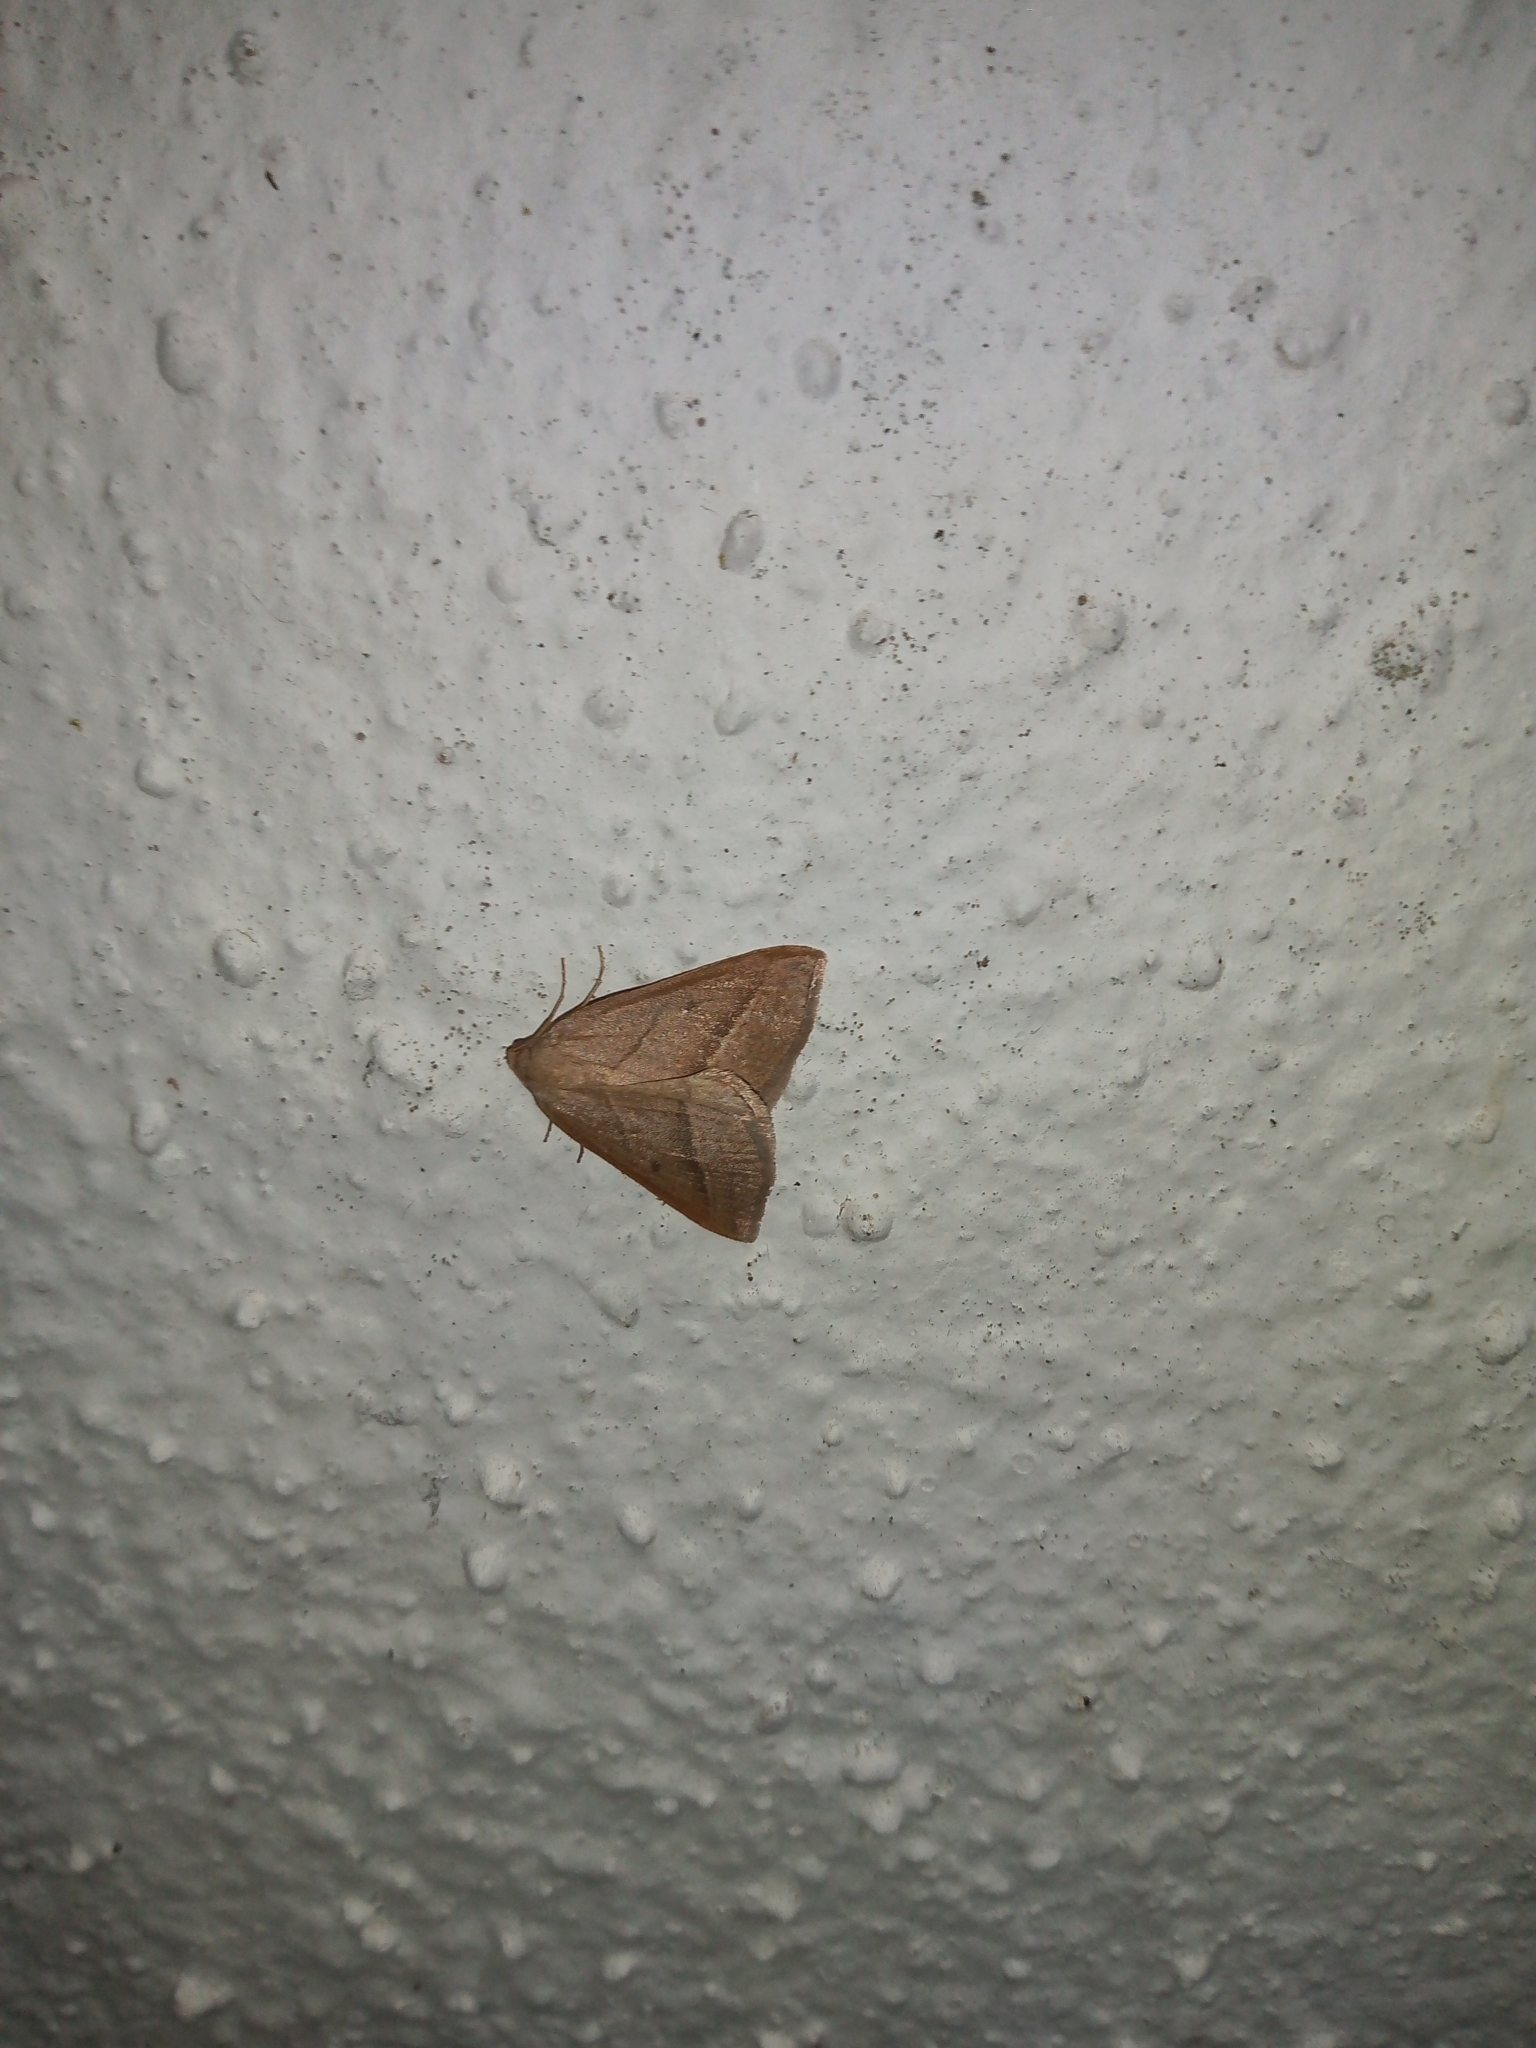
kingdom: Animalia
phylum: Arthropoda
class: Insecta
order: Lepidoptera
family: Pterophoridae
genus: Pterophorus
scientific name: Pterophorus Petrophora chlorosata
